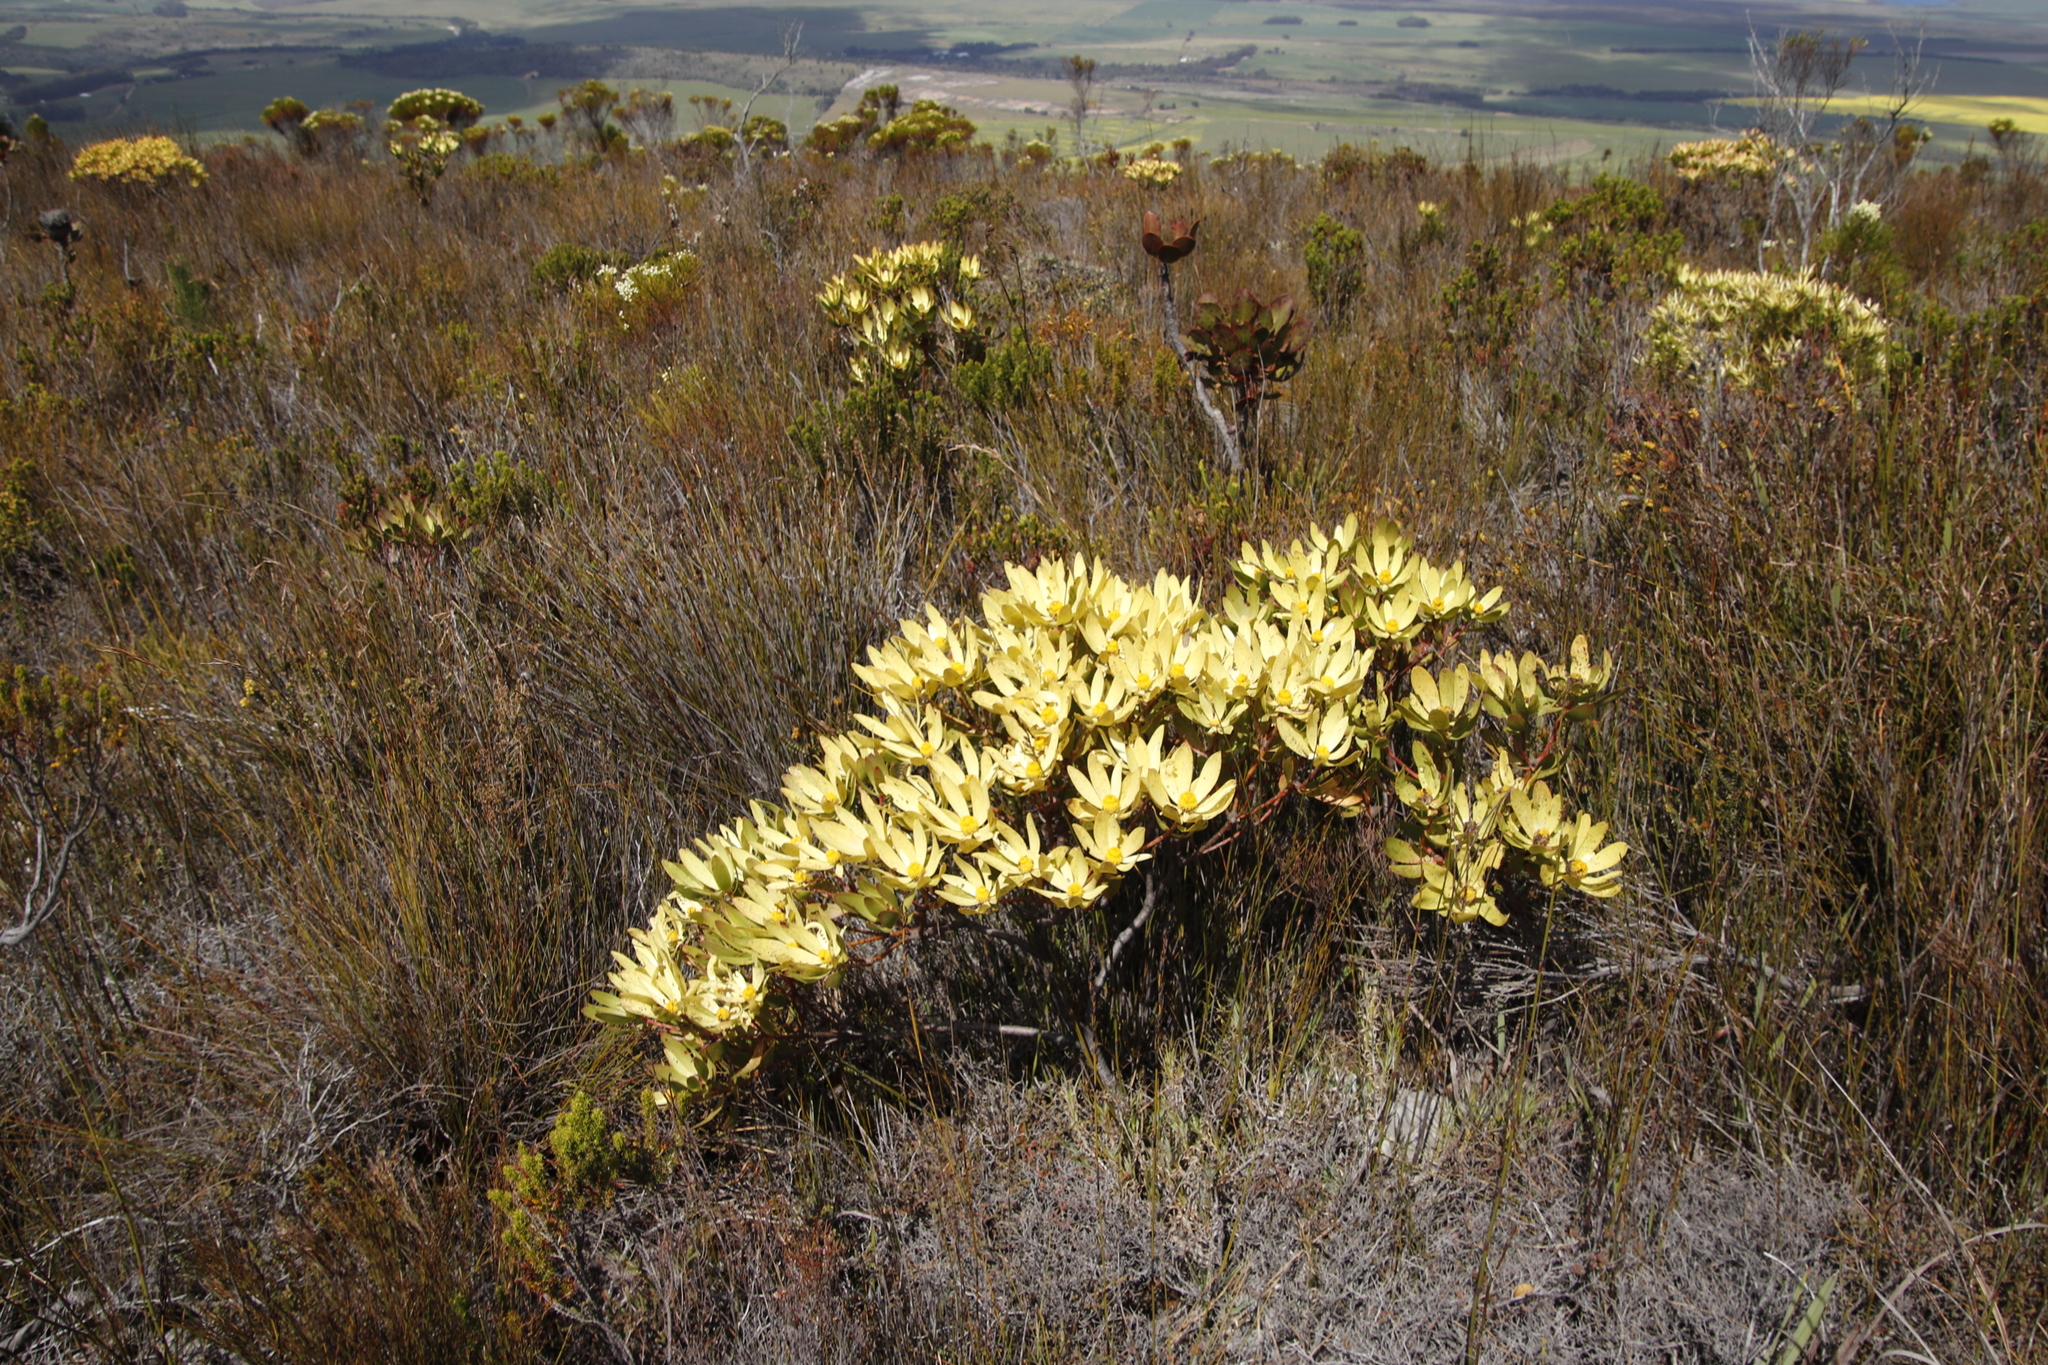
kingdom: Plantae
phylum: Tracheophyta
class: Magnoliopsida
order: Proteales
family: Proteaceae
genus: Leucadendron
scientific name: Leucadendron gandogeri
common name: Broad-leaf conebush
